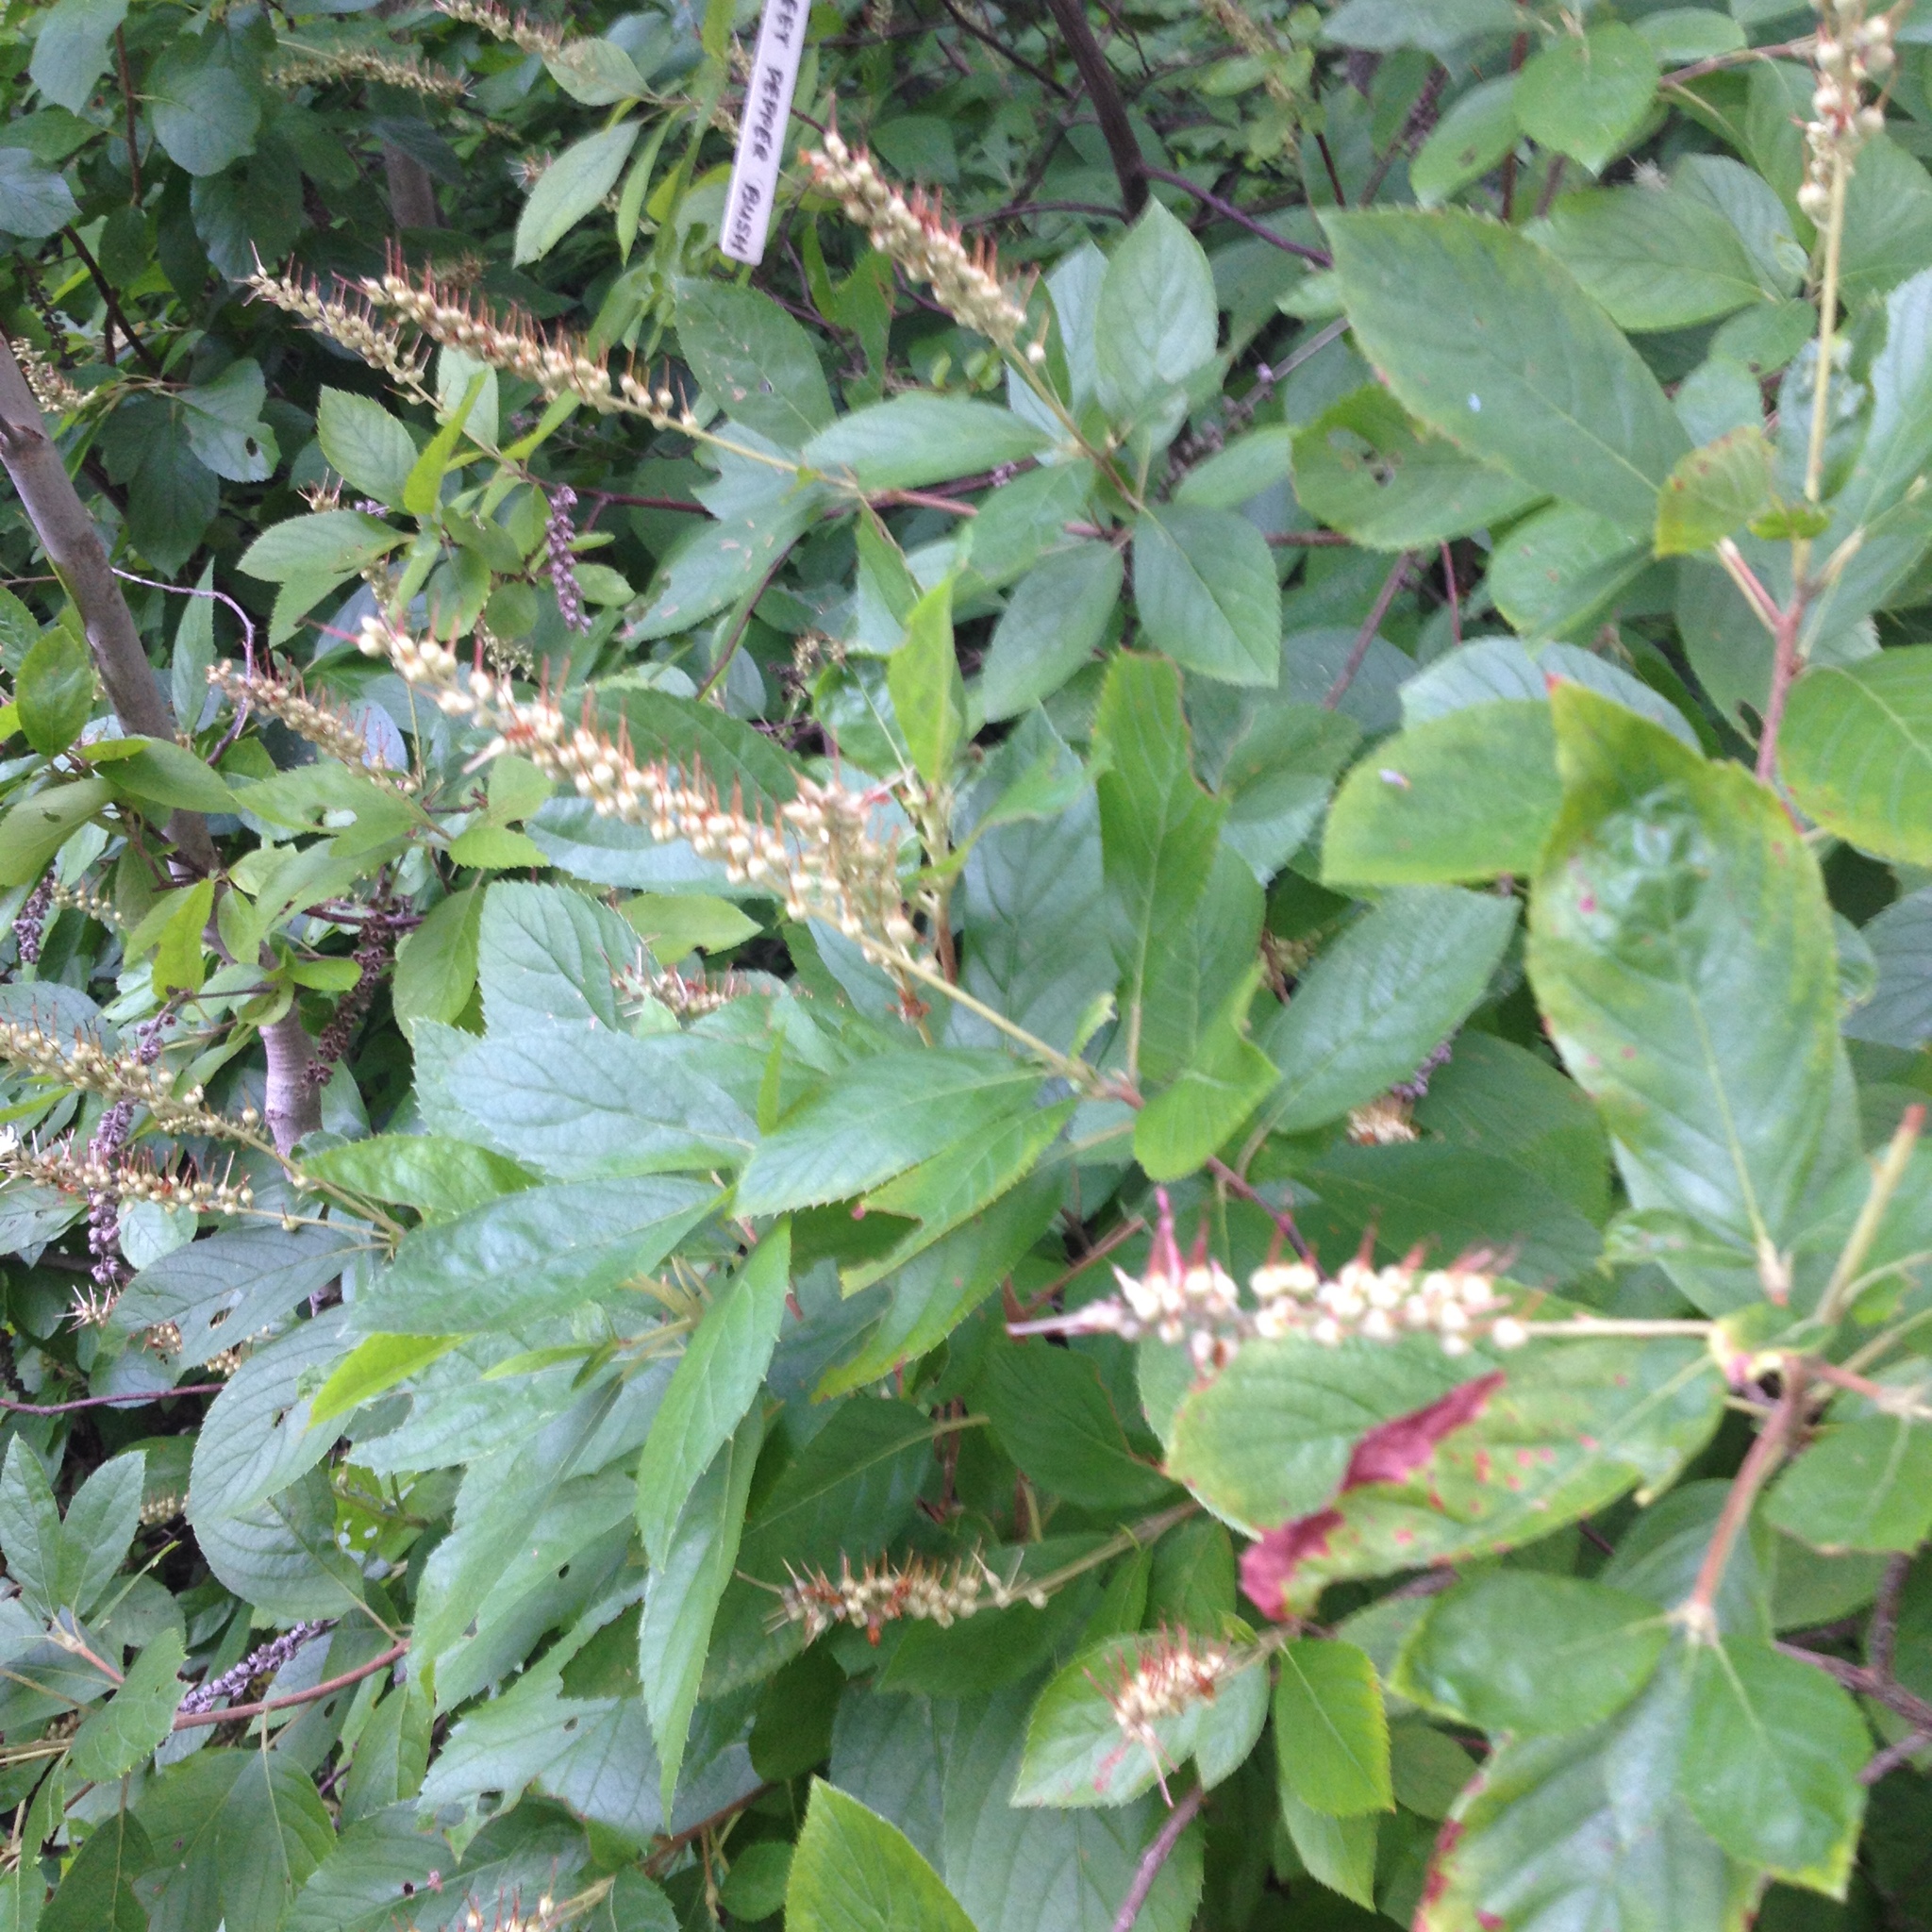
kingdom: Plantae
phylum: Tracheophyta
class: Magnoliopsida
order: Ericales
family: Clethraceae
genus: Clethra
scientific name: Clethra alnifolia
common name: Sweet pepperbush
